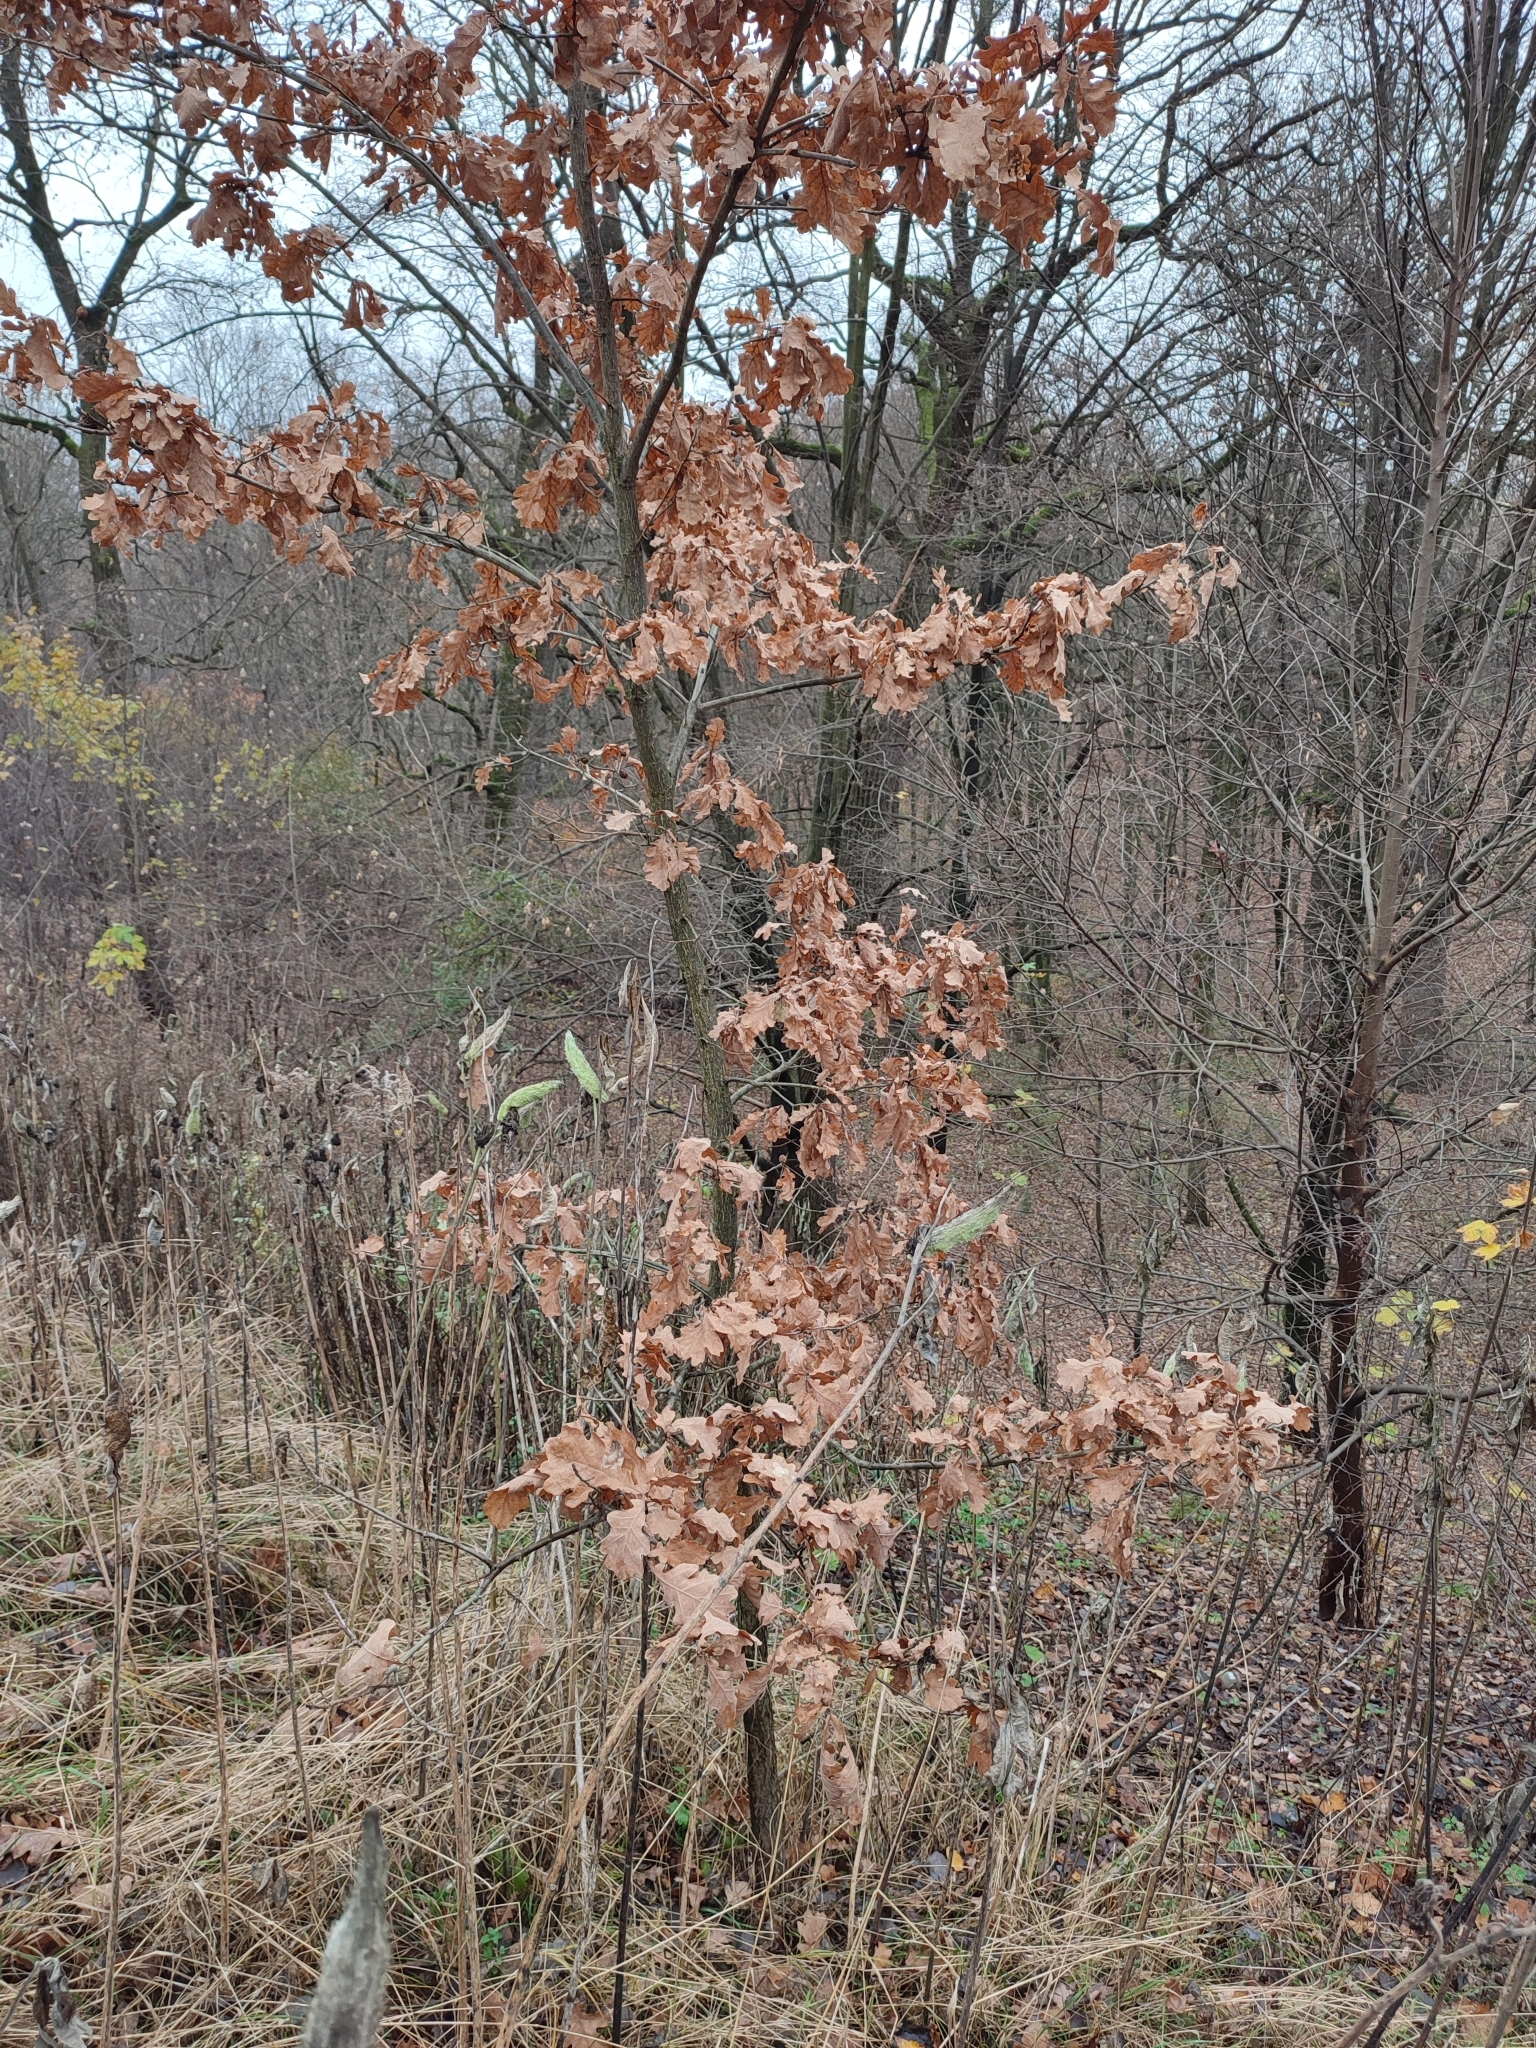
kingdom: Plantae
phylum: Tracheophyta
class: Magnoliopsida
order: Fagales
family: Fagaceae
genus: Quercus
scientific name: Quercus robur
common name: Pedunculate oak
